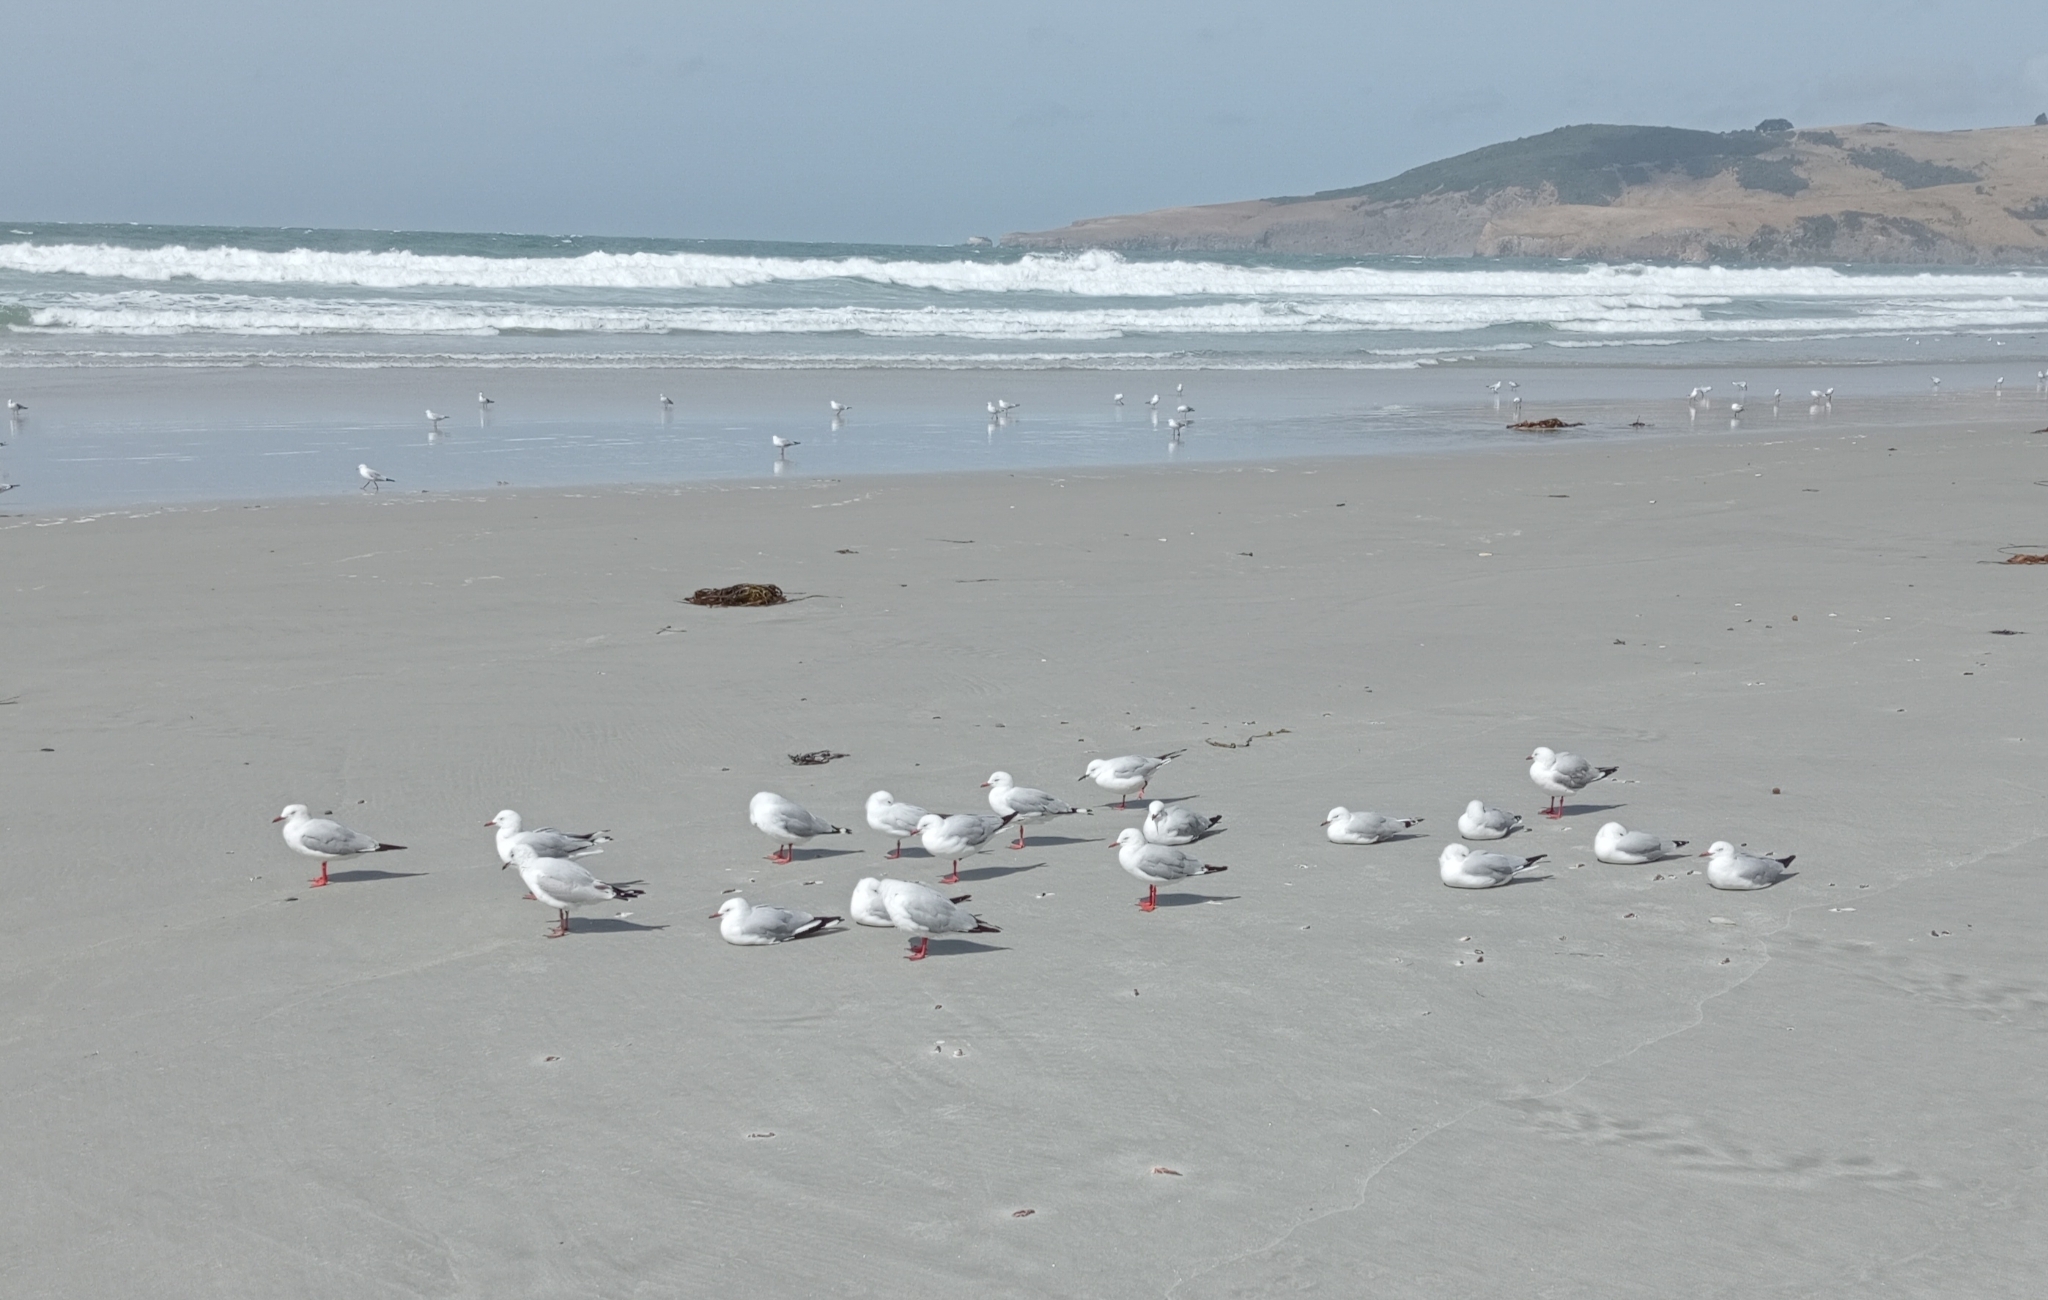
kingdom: Animalia
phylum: Chordata
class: Aves
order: Charadriiformes
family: Laridae
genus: Chroicocephalus
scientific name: Chroicocephalus novaehollandiae
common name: Silver gull
